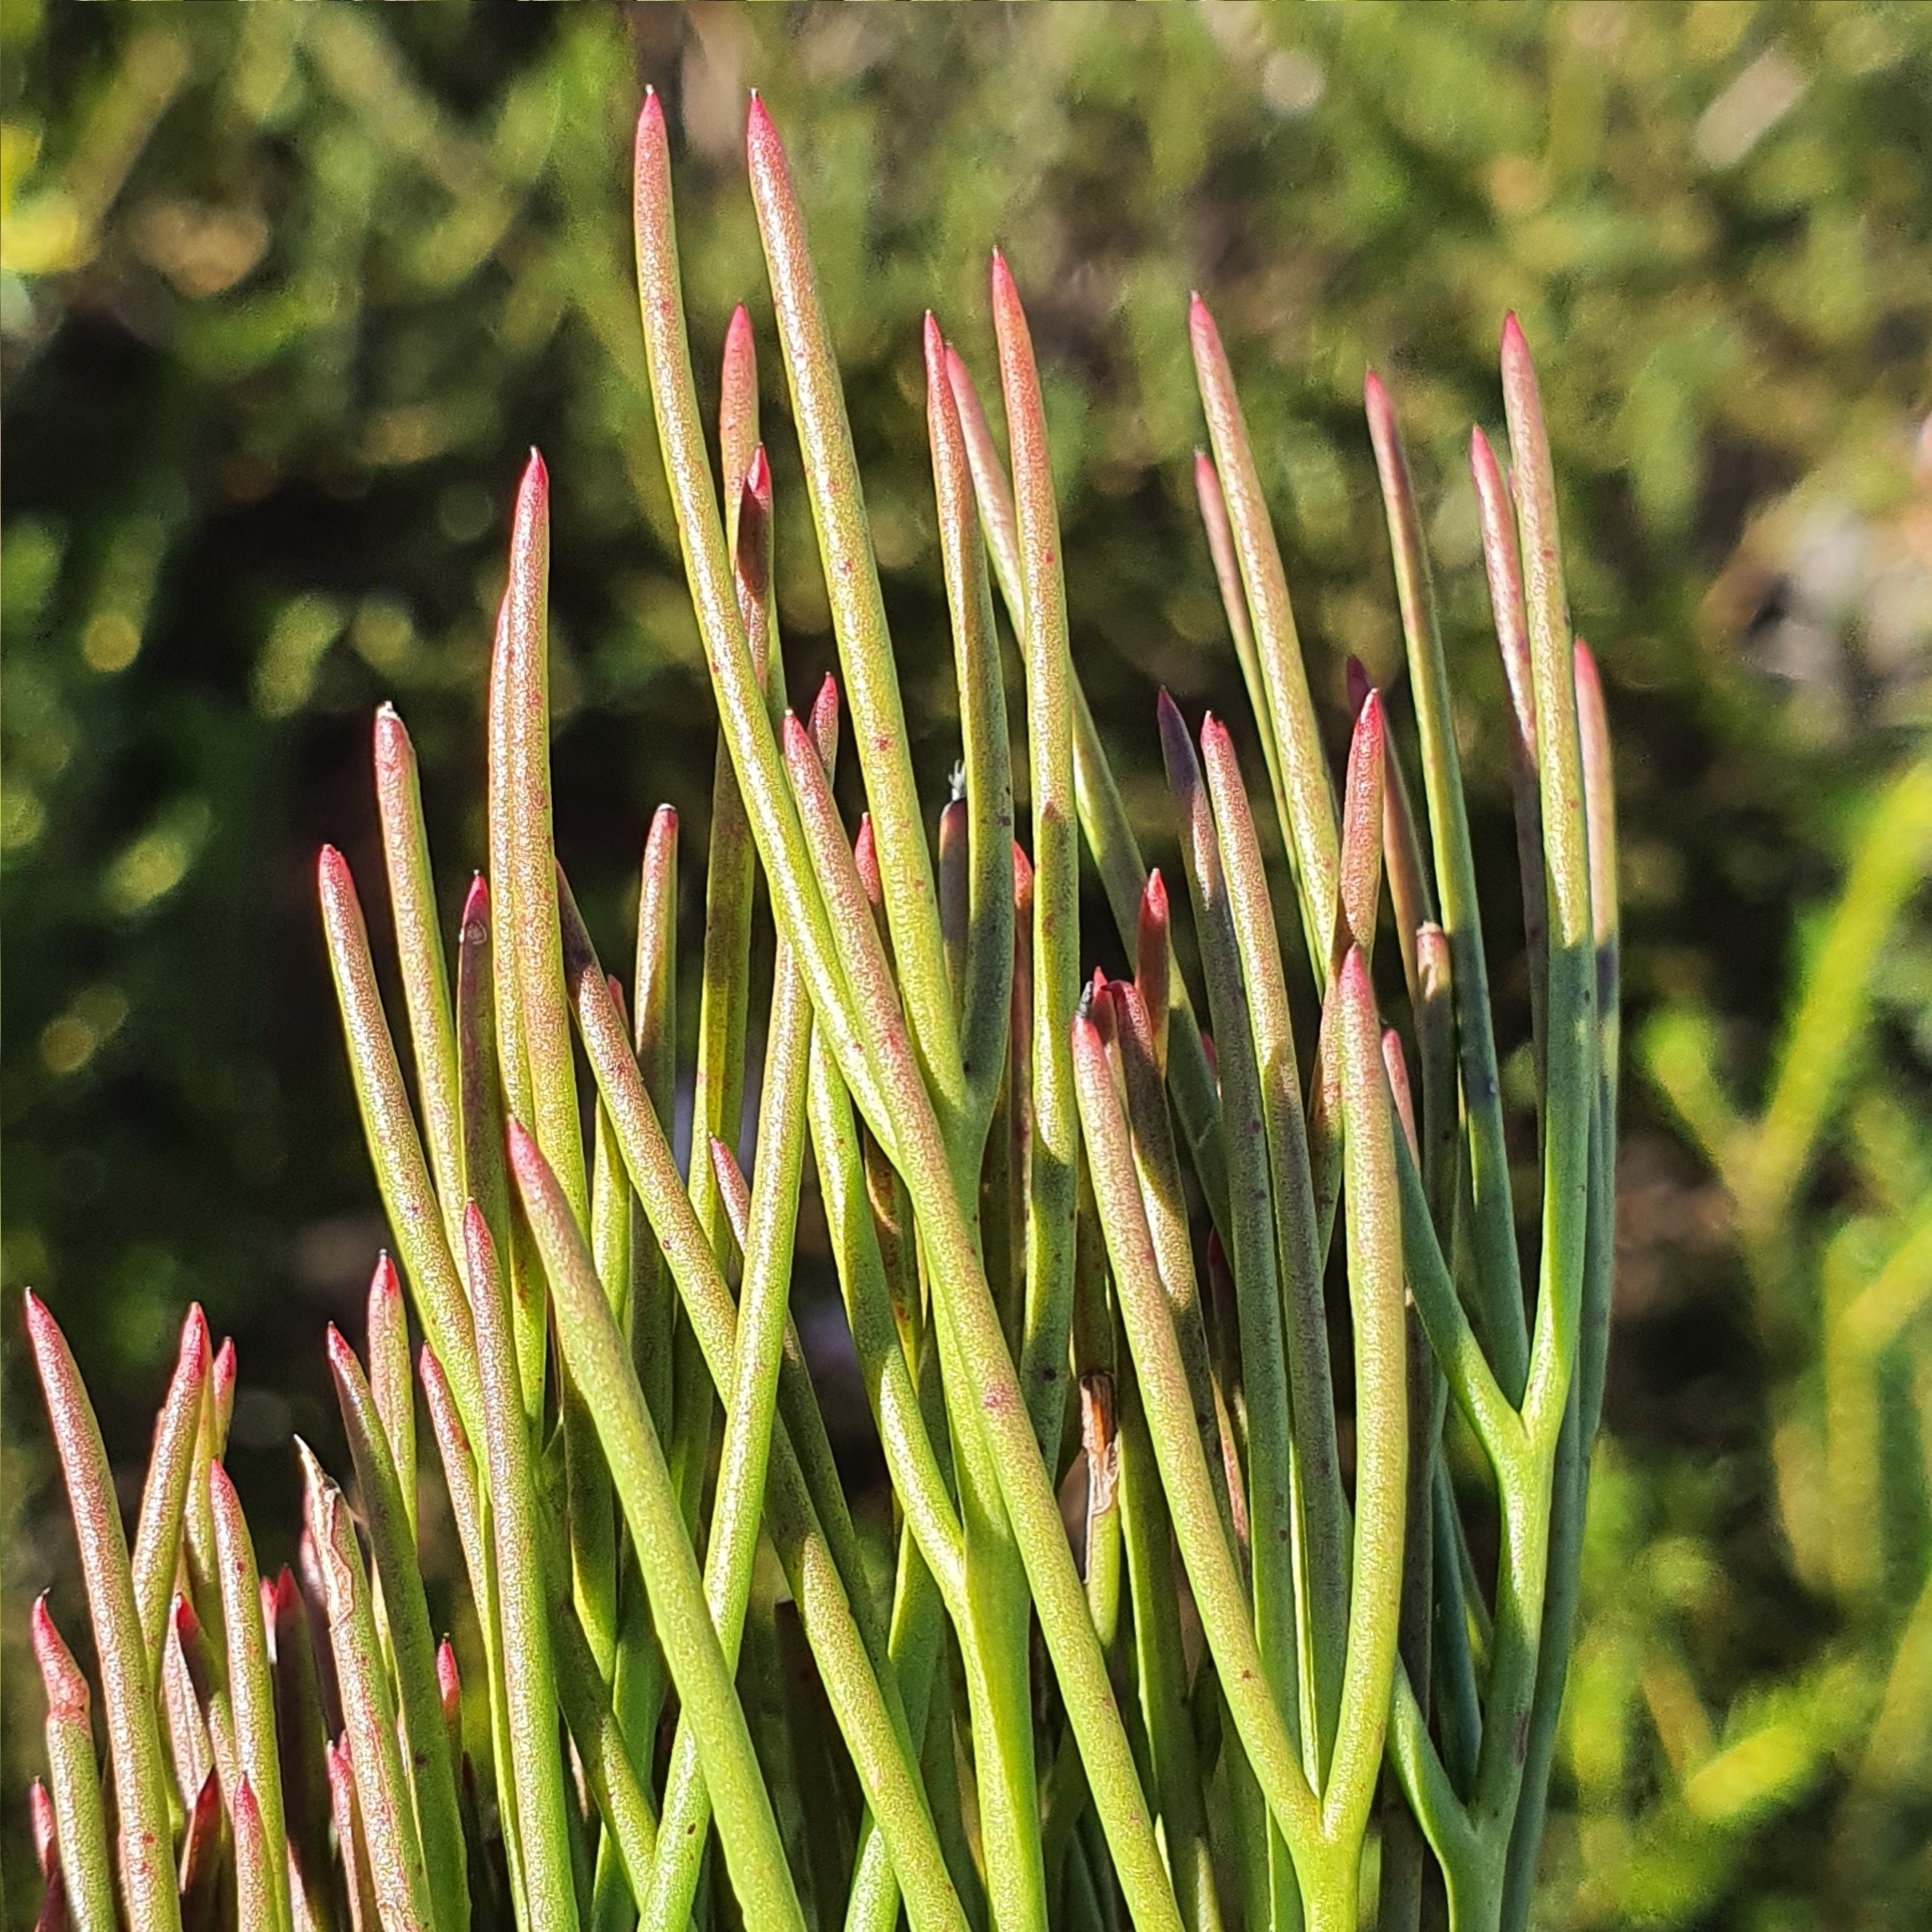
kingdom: Plantae
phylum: Tracheophyta
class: Magnoliopsida
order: Proteales
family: Proteaceae
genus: Isopogon
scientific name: Isopogon anethifolius
